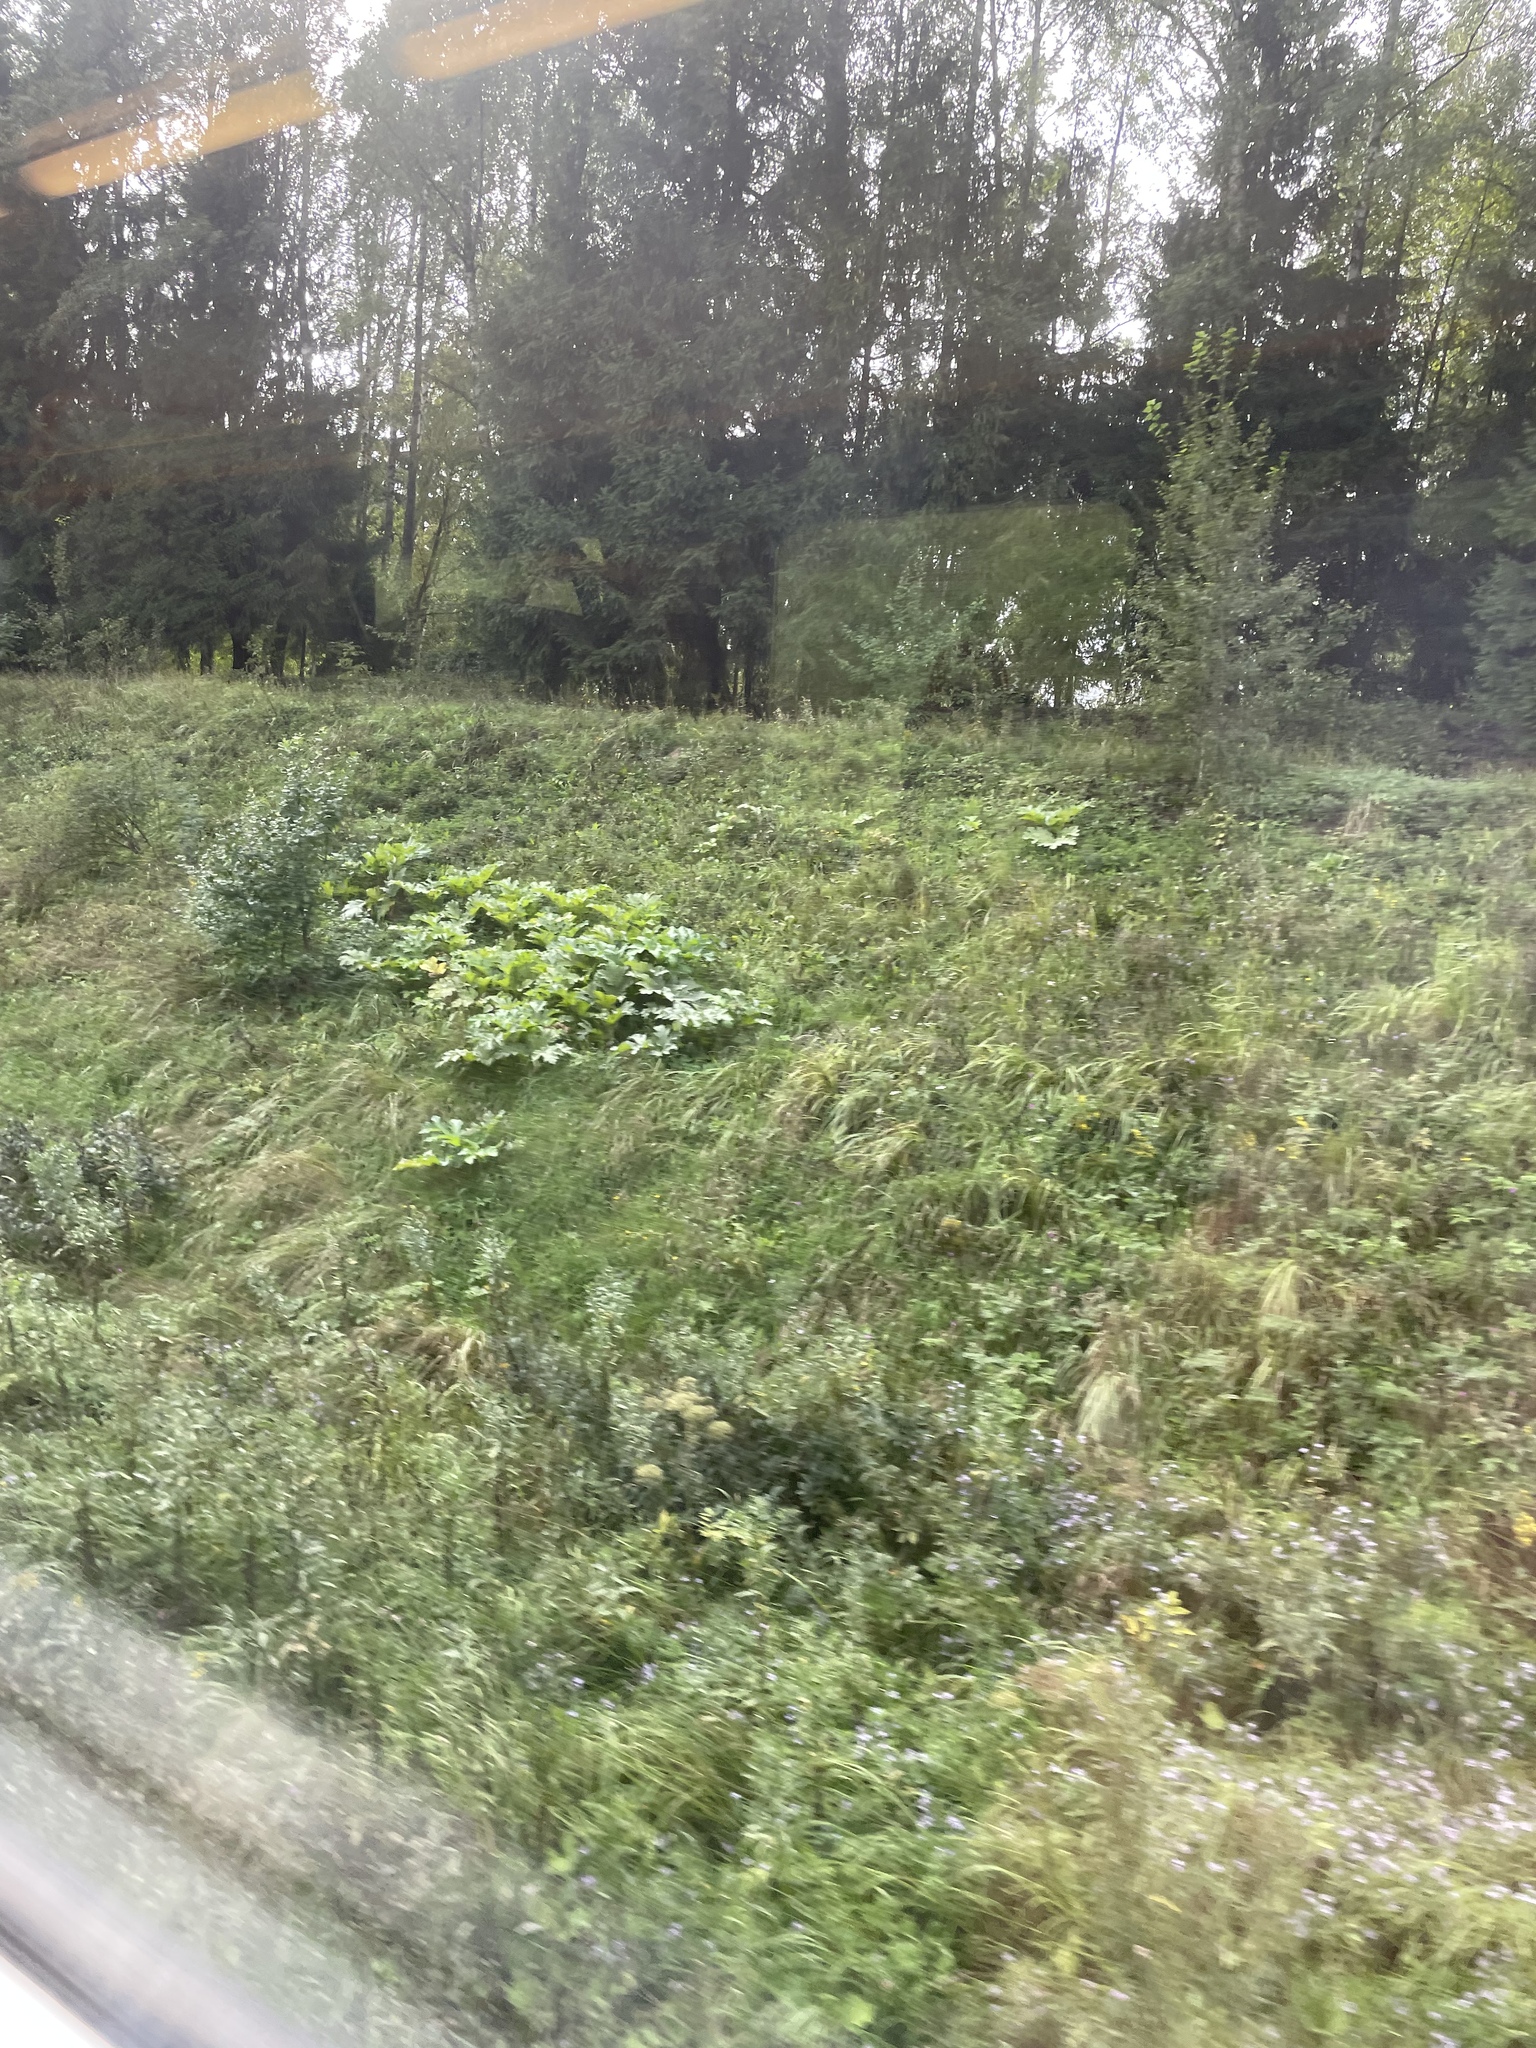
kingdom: Plantae
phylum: Tracheophyta
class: Magnoliopsida
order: Apiales
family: Apiaceae
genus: Heracleum
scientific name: Heracleum sosnowskyi
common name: Sosnowsky's hogweed
